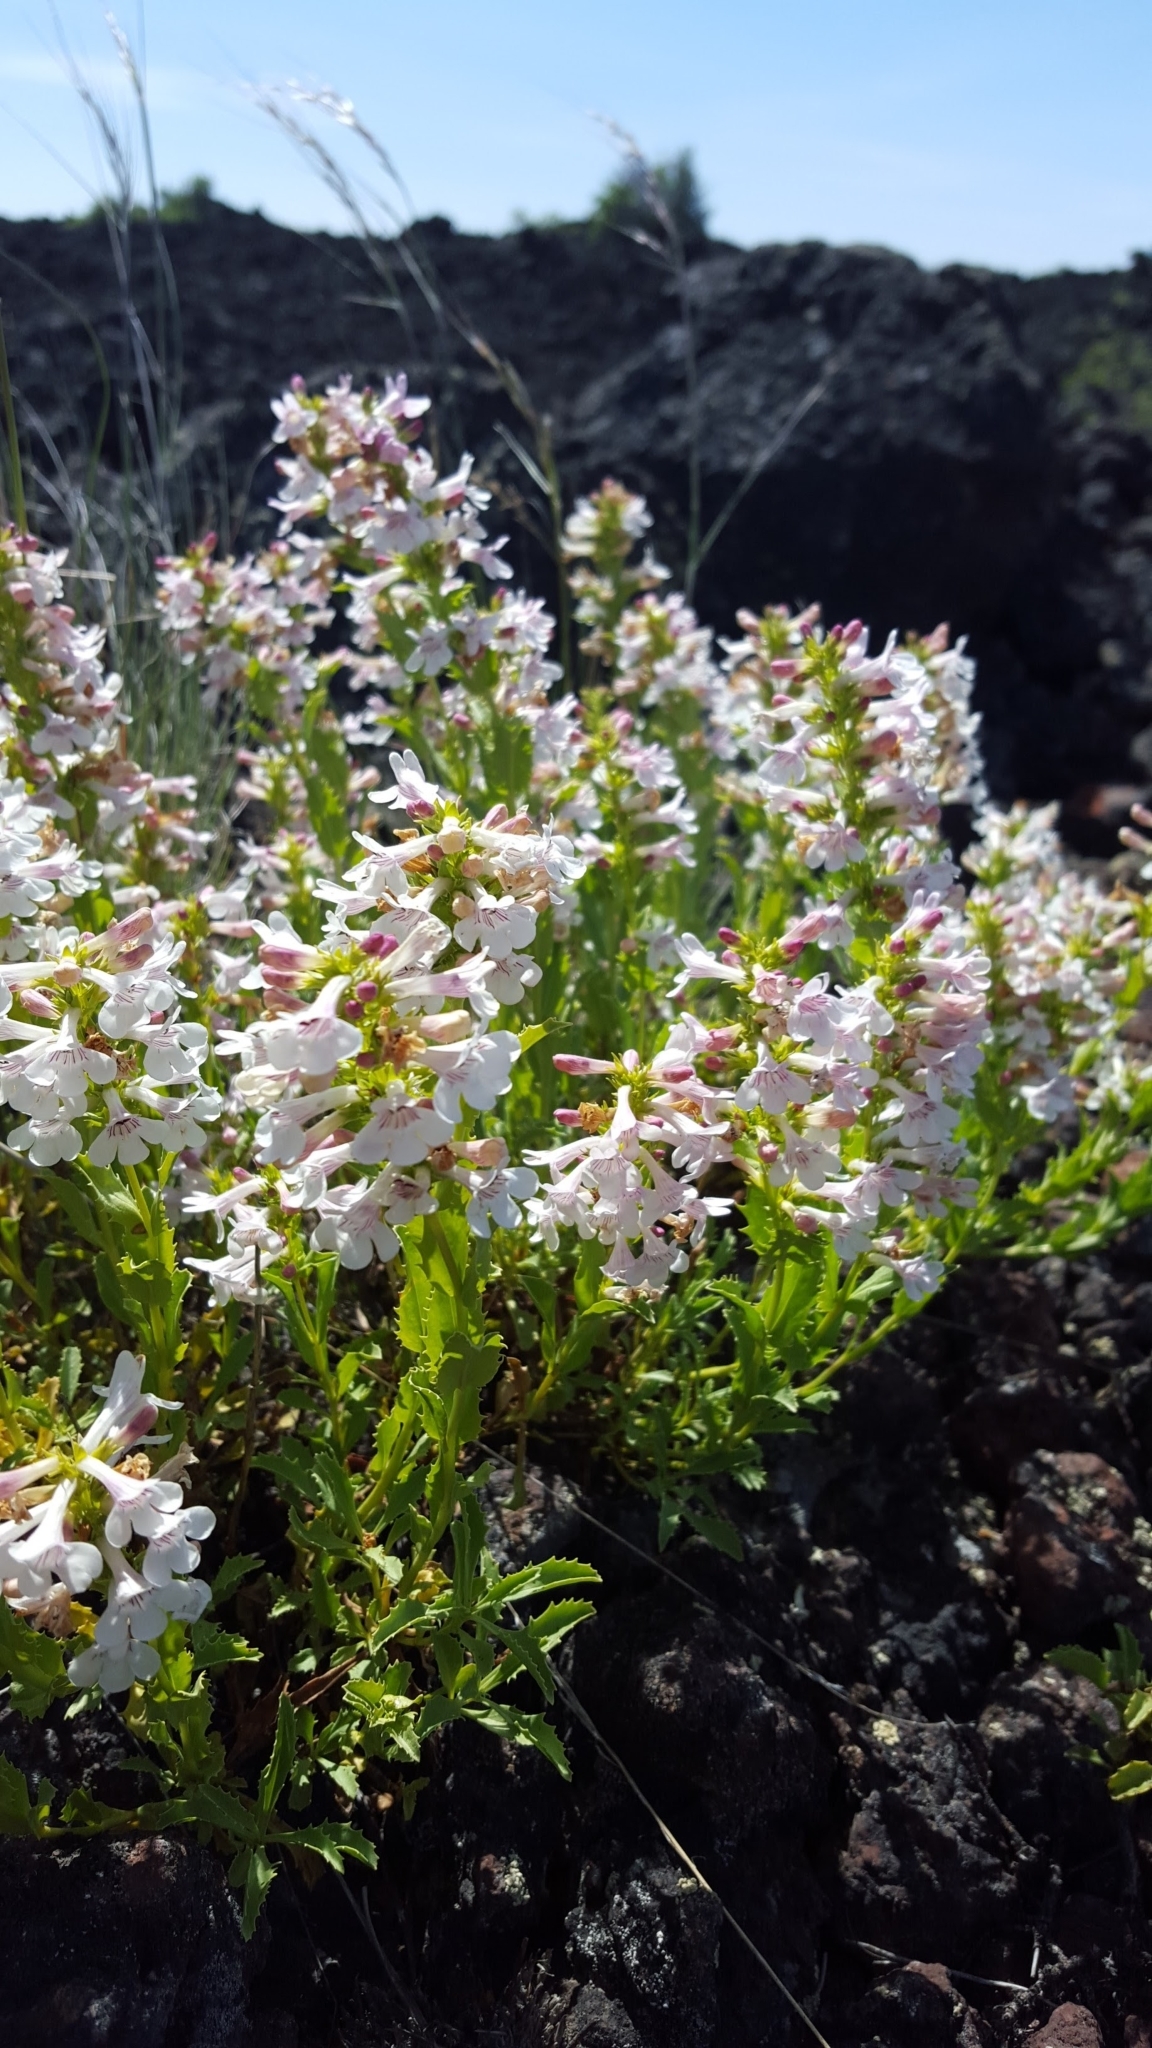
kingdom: Plantae
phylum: Tracheophyta
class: Magnoliopsida
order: Lamiales
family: Plantaginaceae
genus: Penstemon
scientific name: Penstemon deustus
